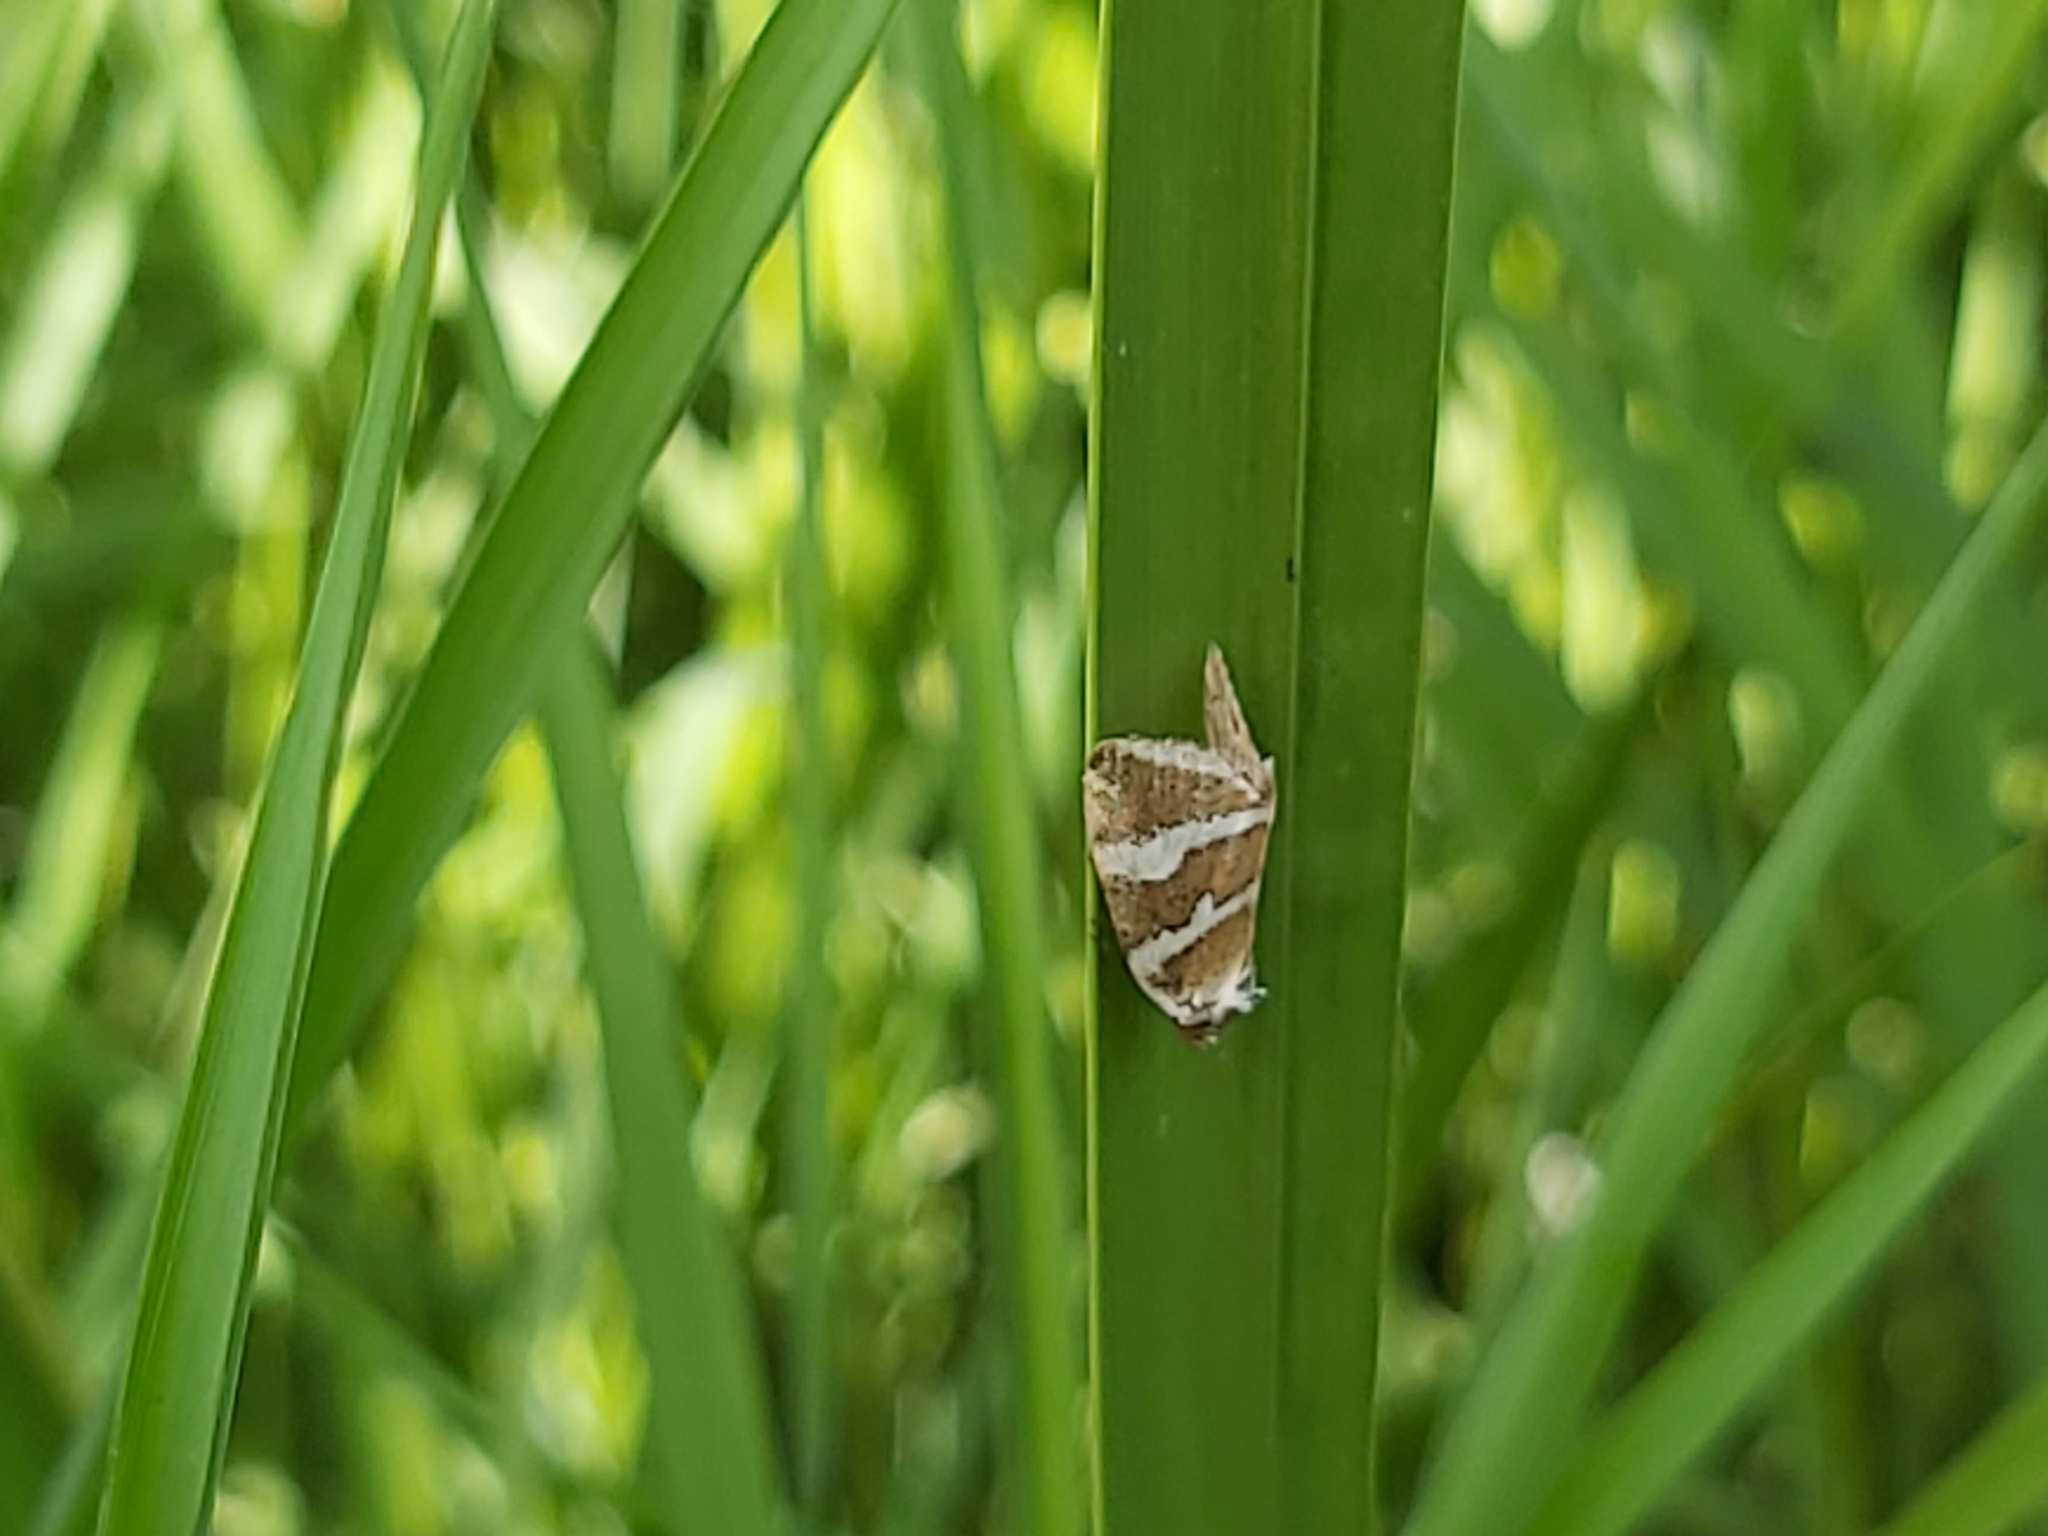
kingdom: Animalia
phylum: Arthropoda
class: Insecta
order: Lepidoptera
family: Noctuidae
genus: Deltote
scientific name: Deltote bankiana
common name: Silver barred
